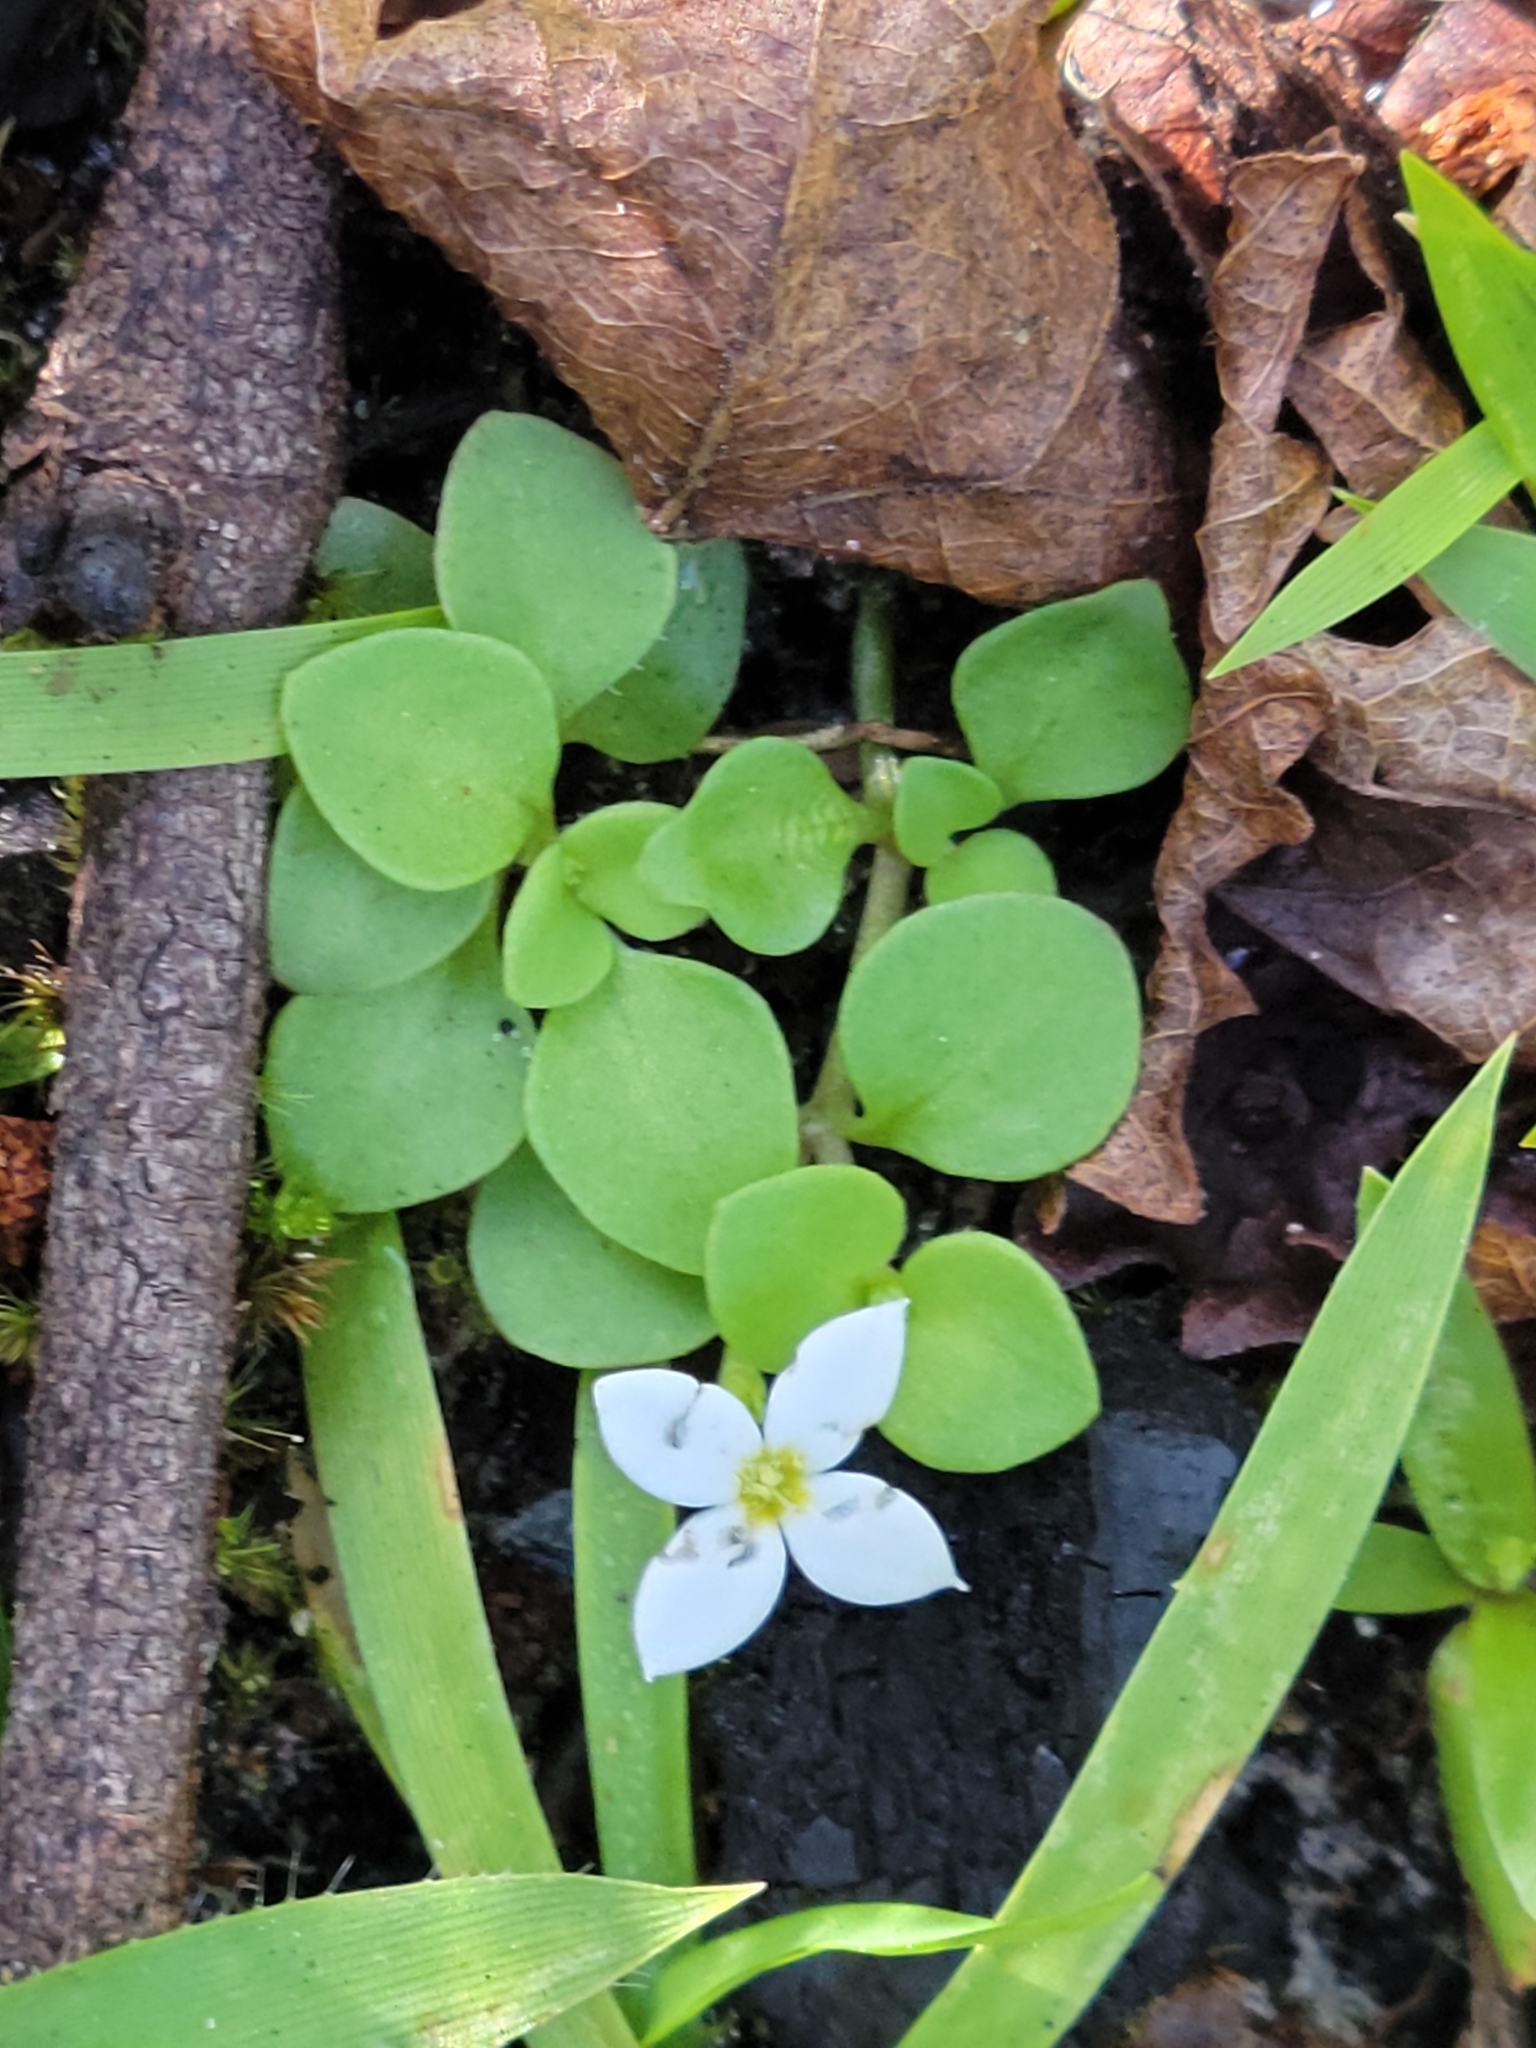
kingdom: Plantae
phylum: Tracheophyta
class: Magnoliopsida
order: Gentianales
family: Rubiaceae
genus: Houstonia
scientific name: Houstonia procumbens
